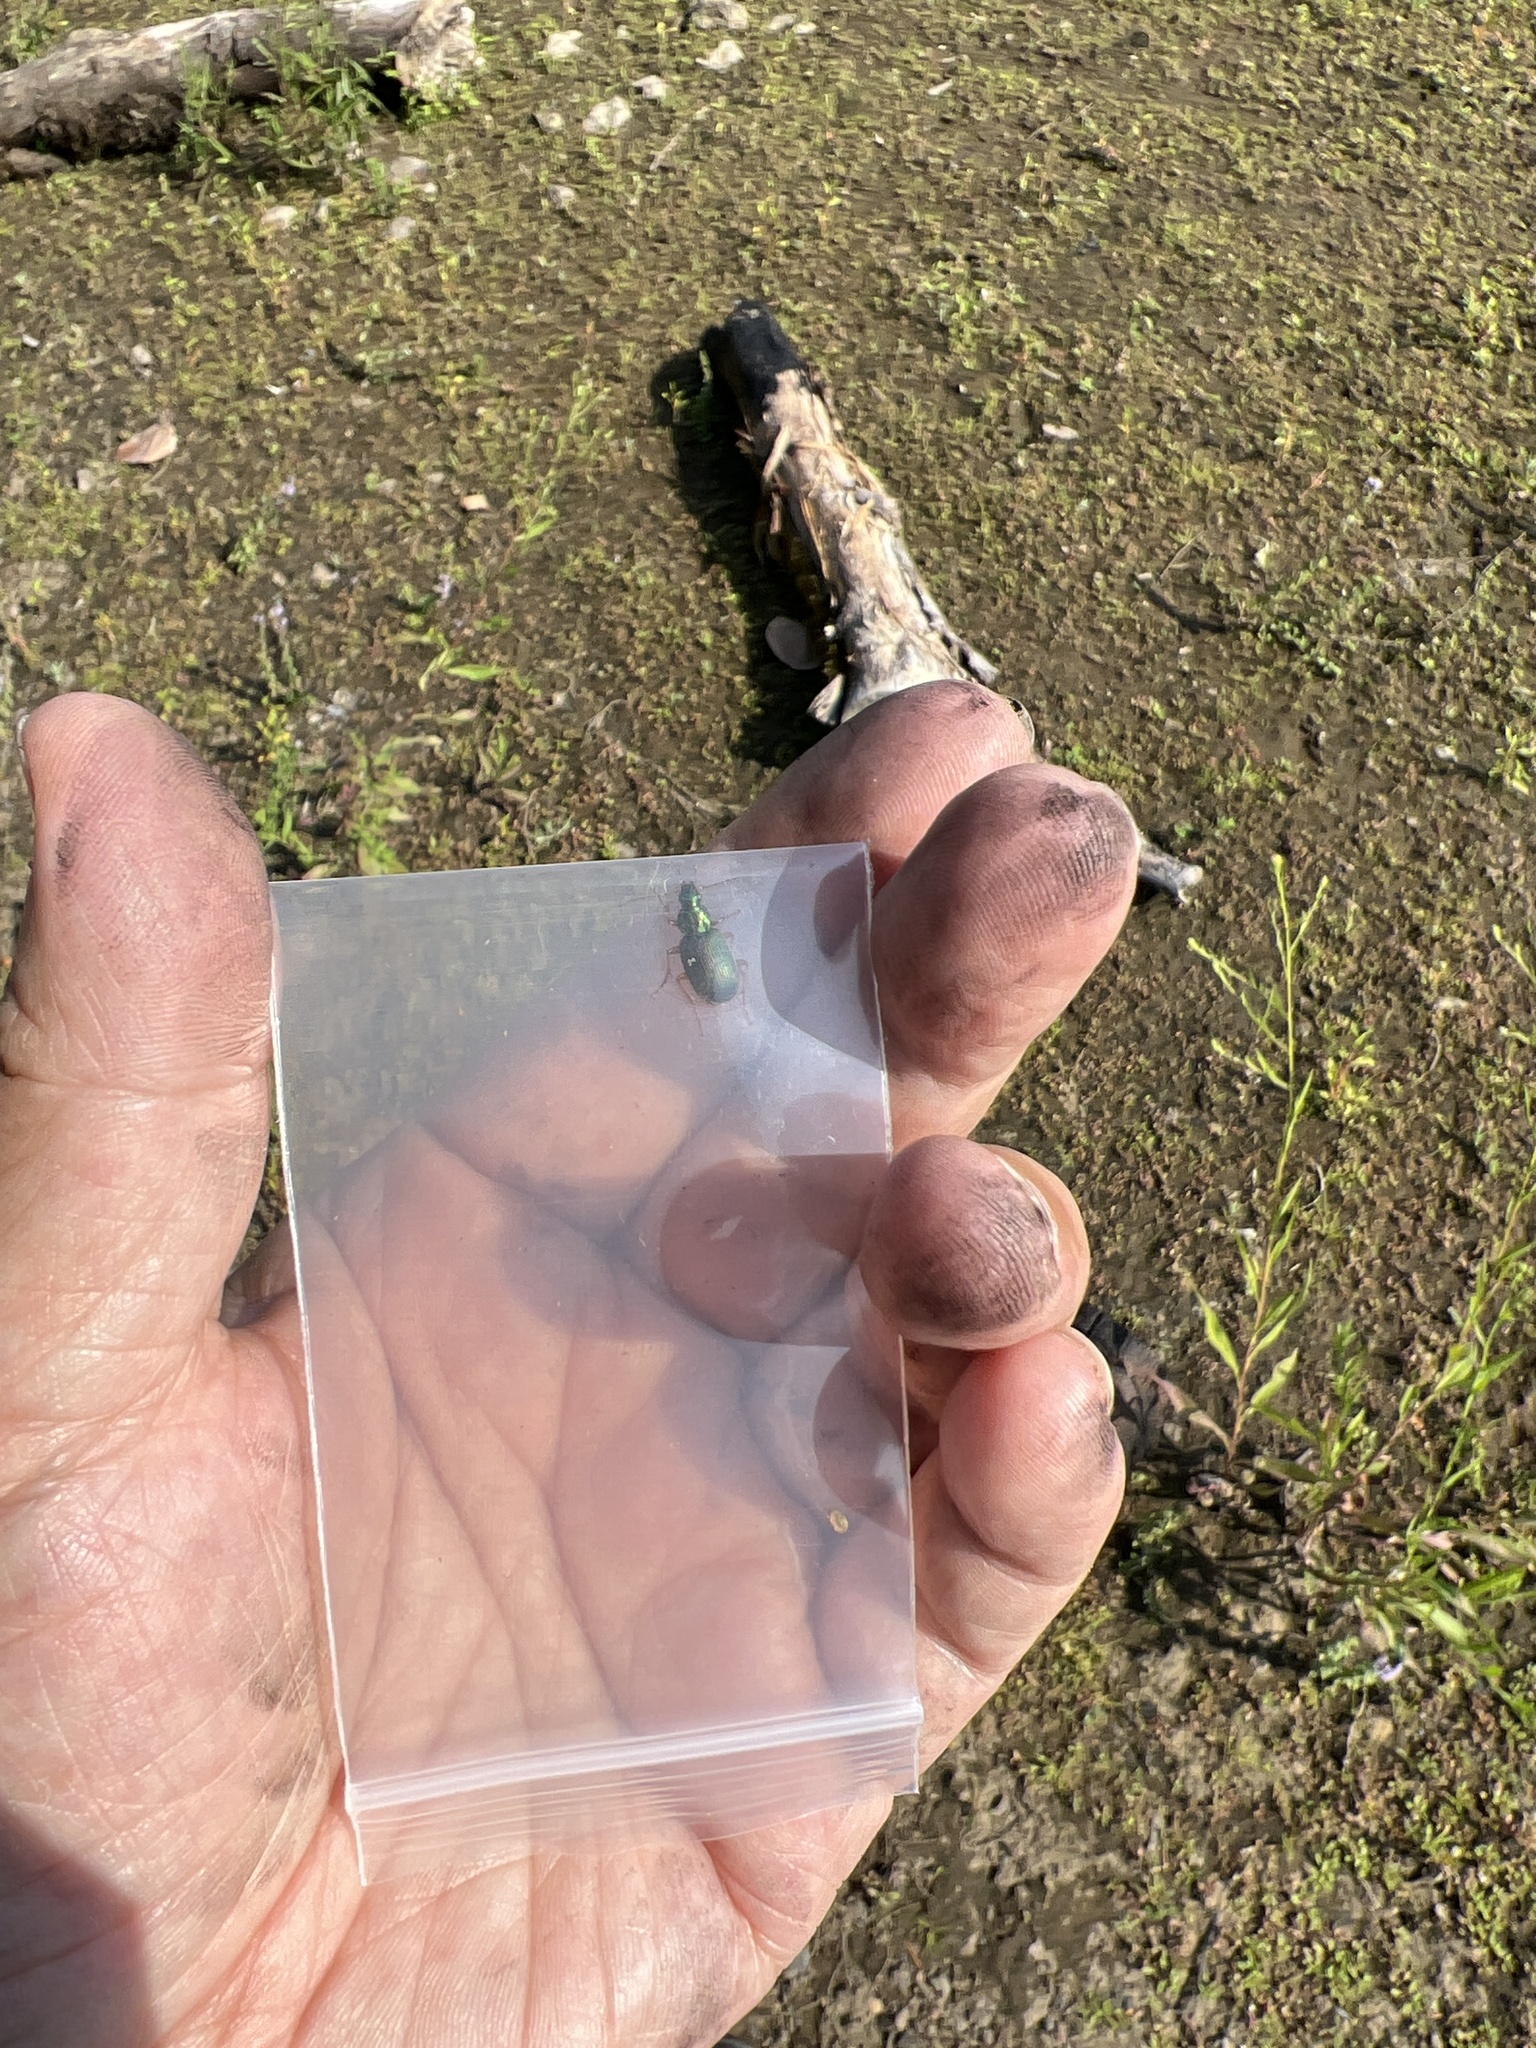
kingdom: Animalia
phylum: Arthropoda
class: Insecta
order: Coleoptera
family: Carabidae
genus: Chlaenius
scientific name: Chlaenius pennsylvanicus
